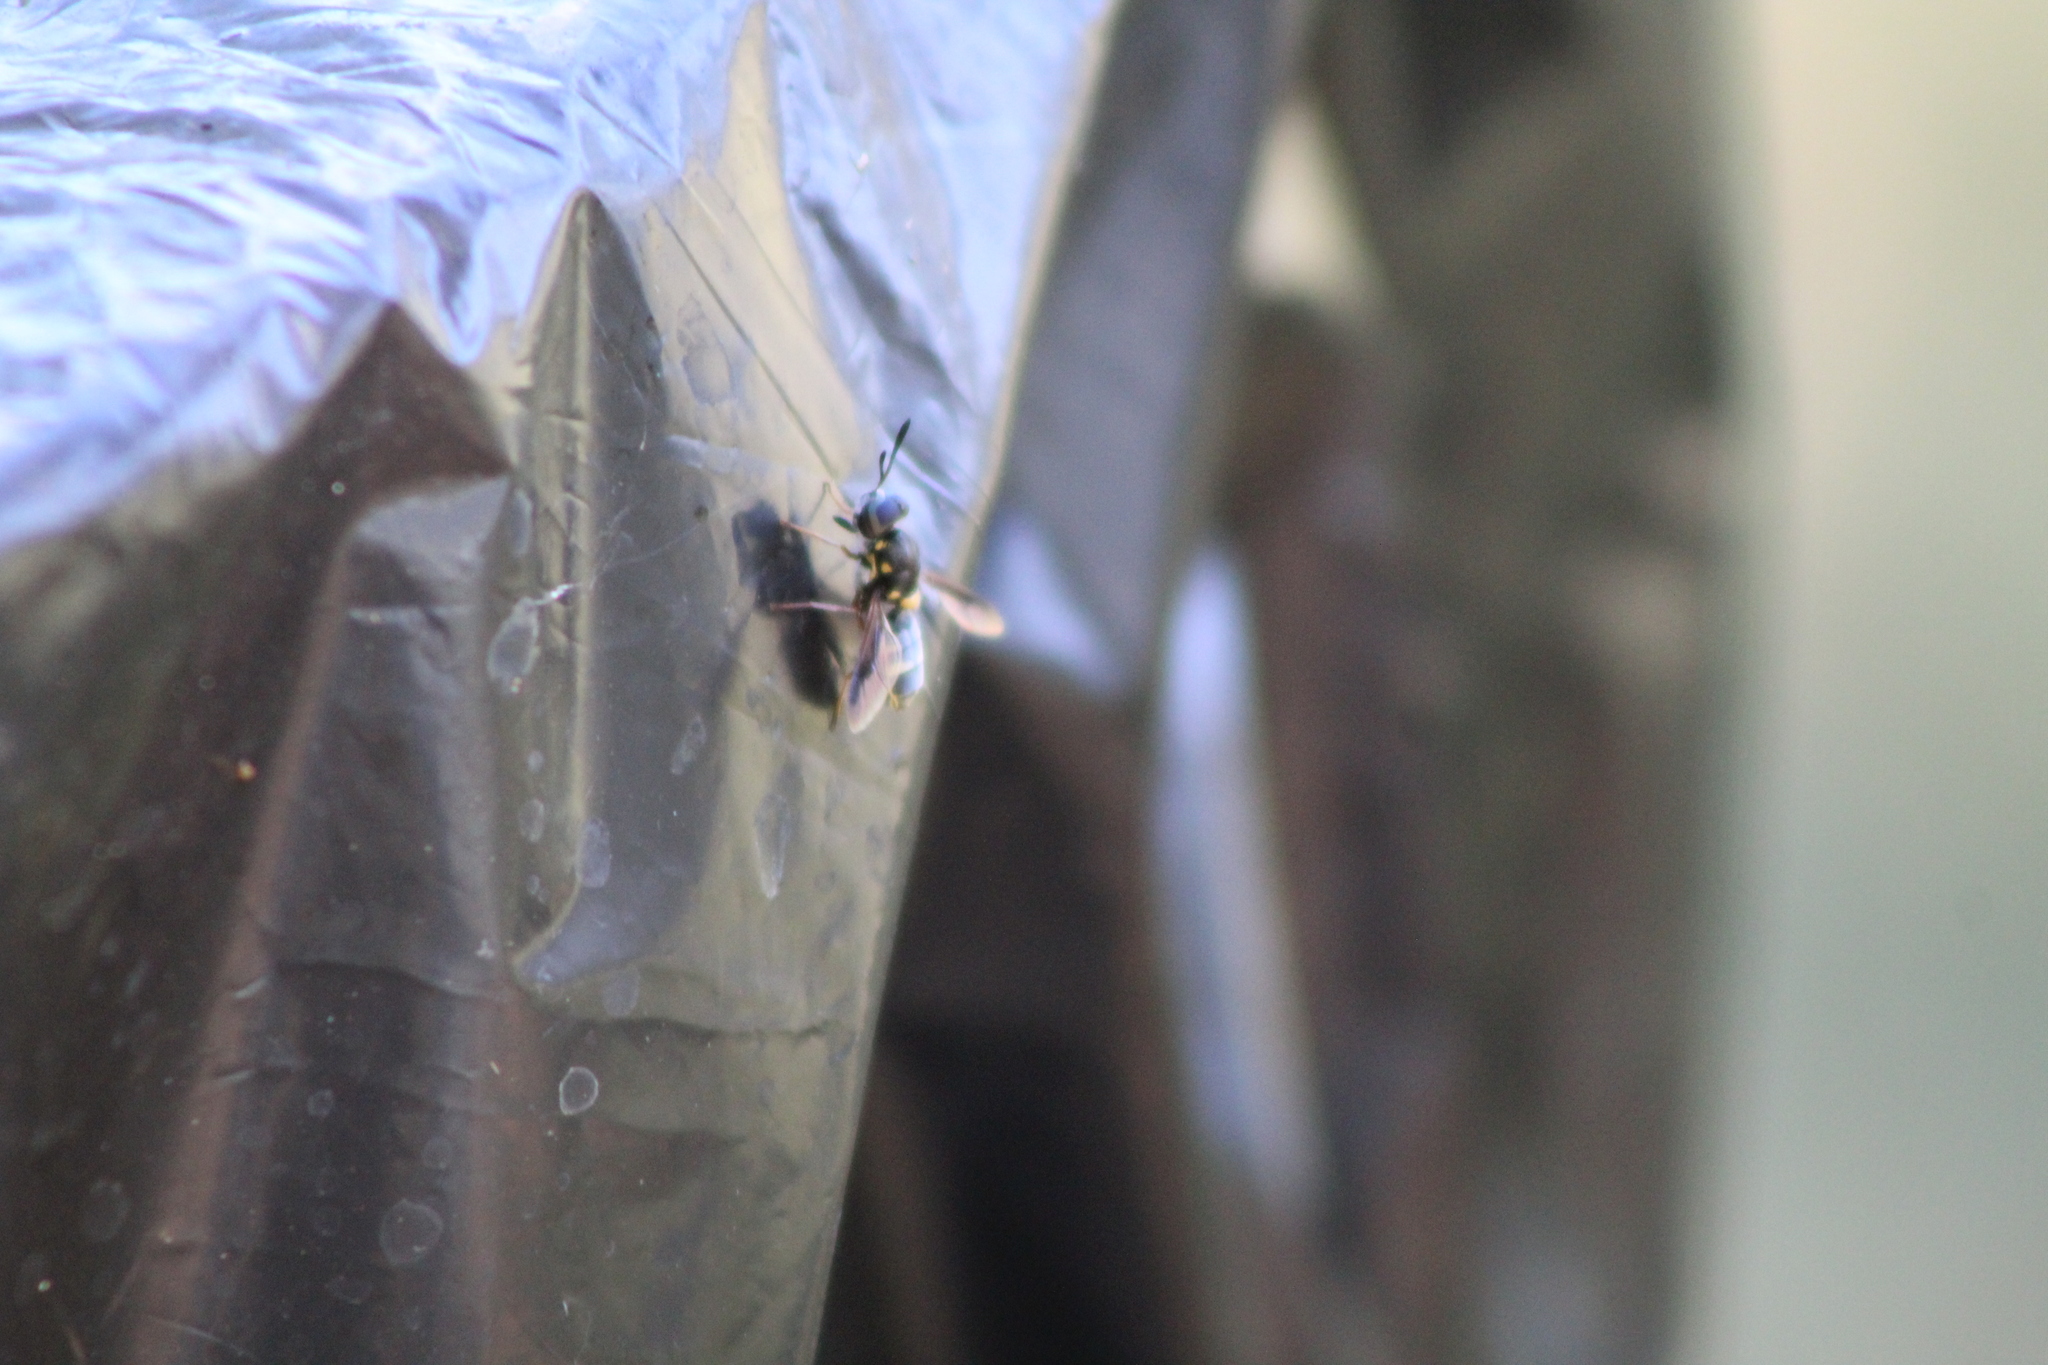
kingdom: Animalia
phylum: Arthropoda
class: Insecta
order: Diptera
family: Stratiomyidae
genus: Hoplitimyia
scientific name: Hoplitimyia constans
